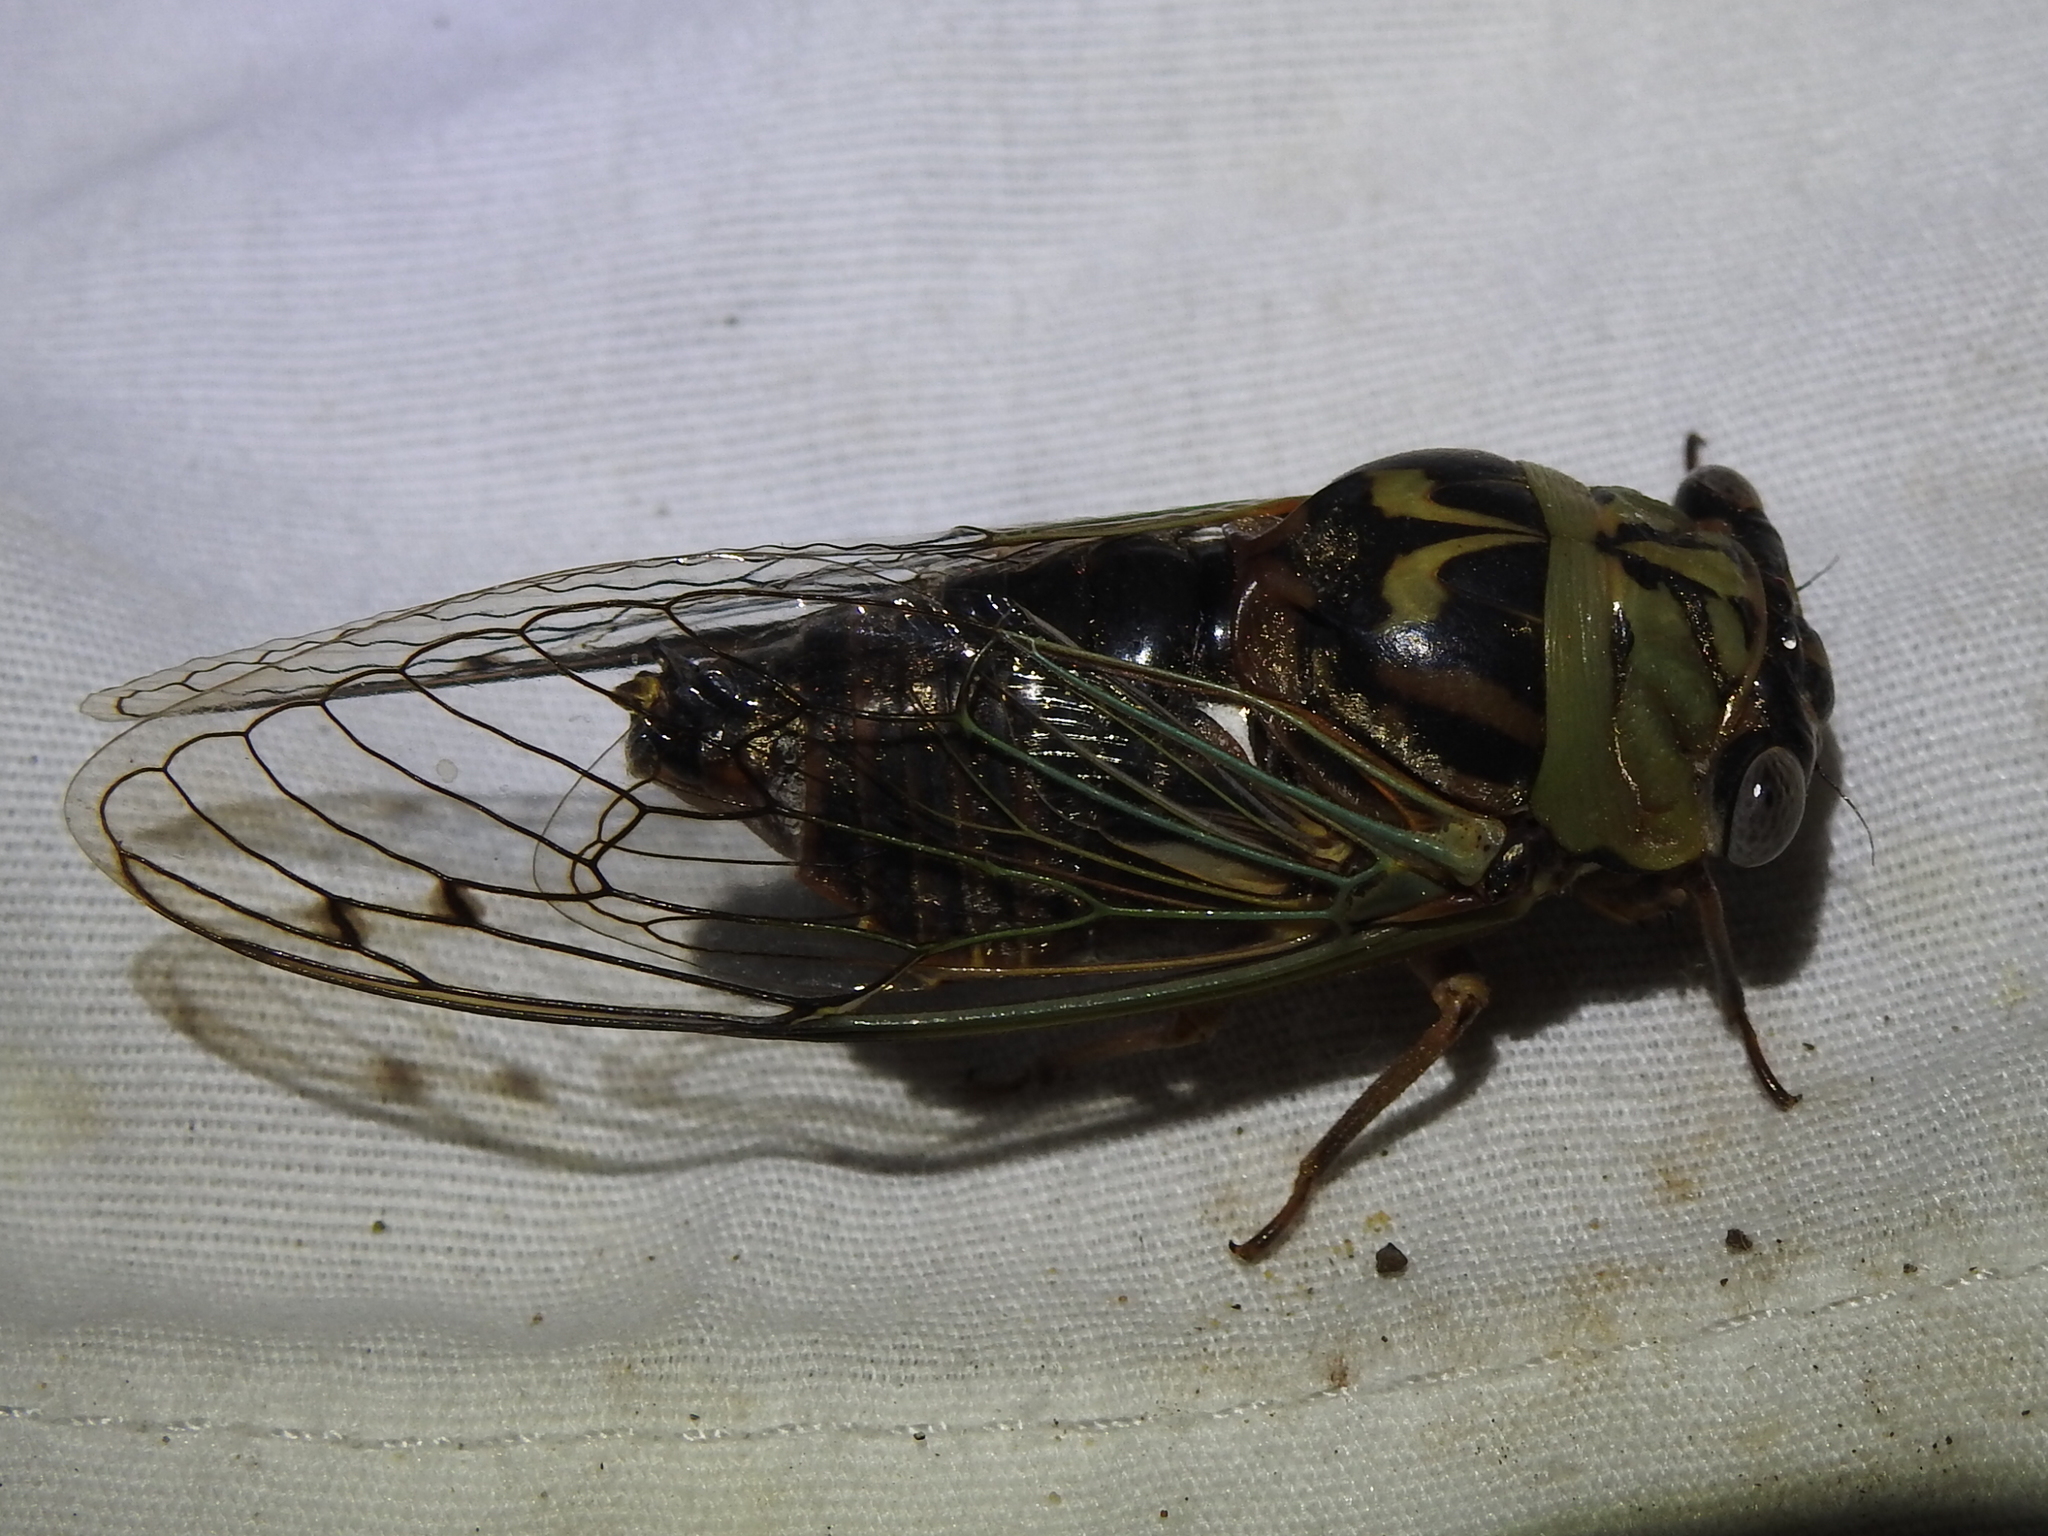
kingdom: Animalia
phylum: Arthropoda
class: Insecta
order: Hemiptera
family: Cicadidae
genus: Megatibicen
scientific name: Megatibicen resh
